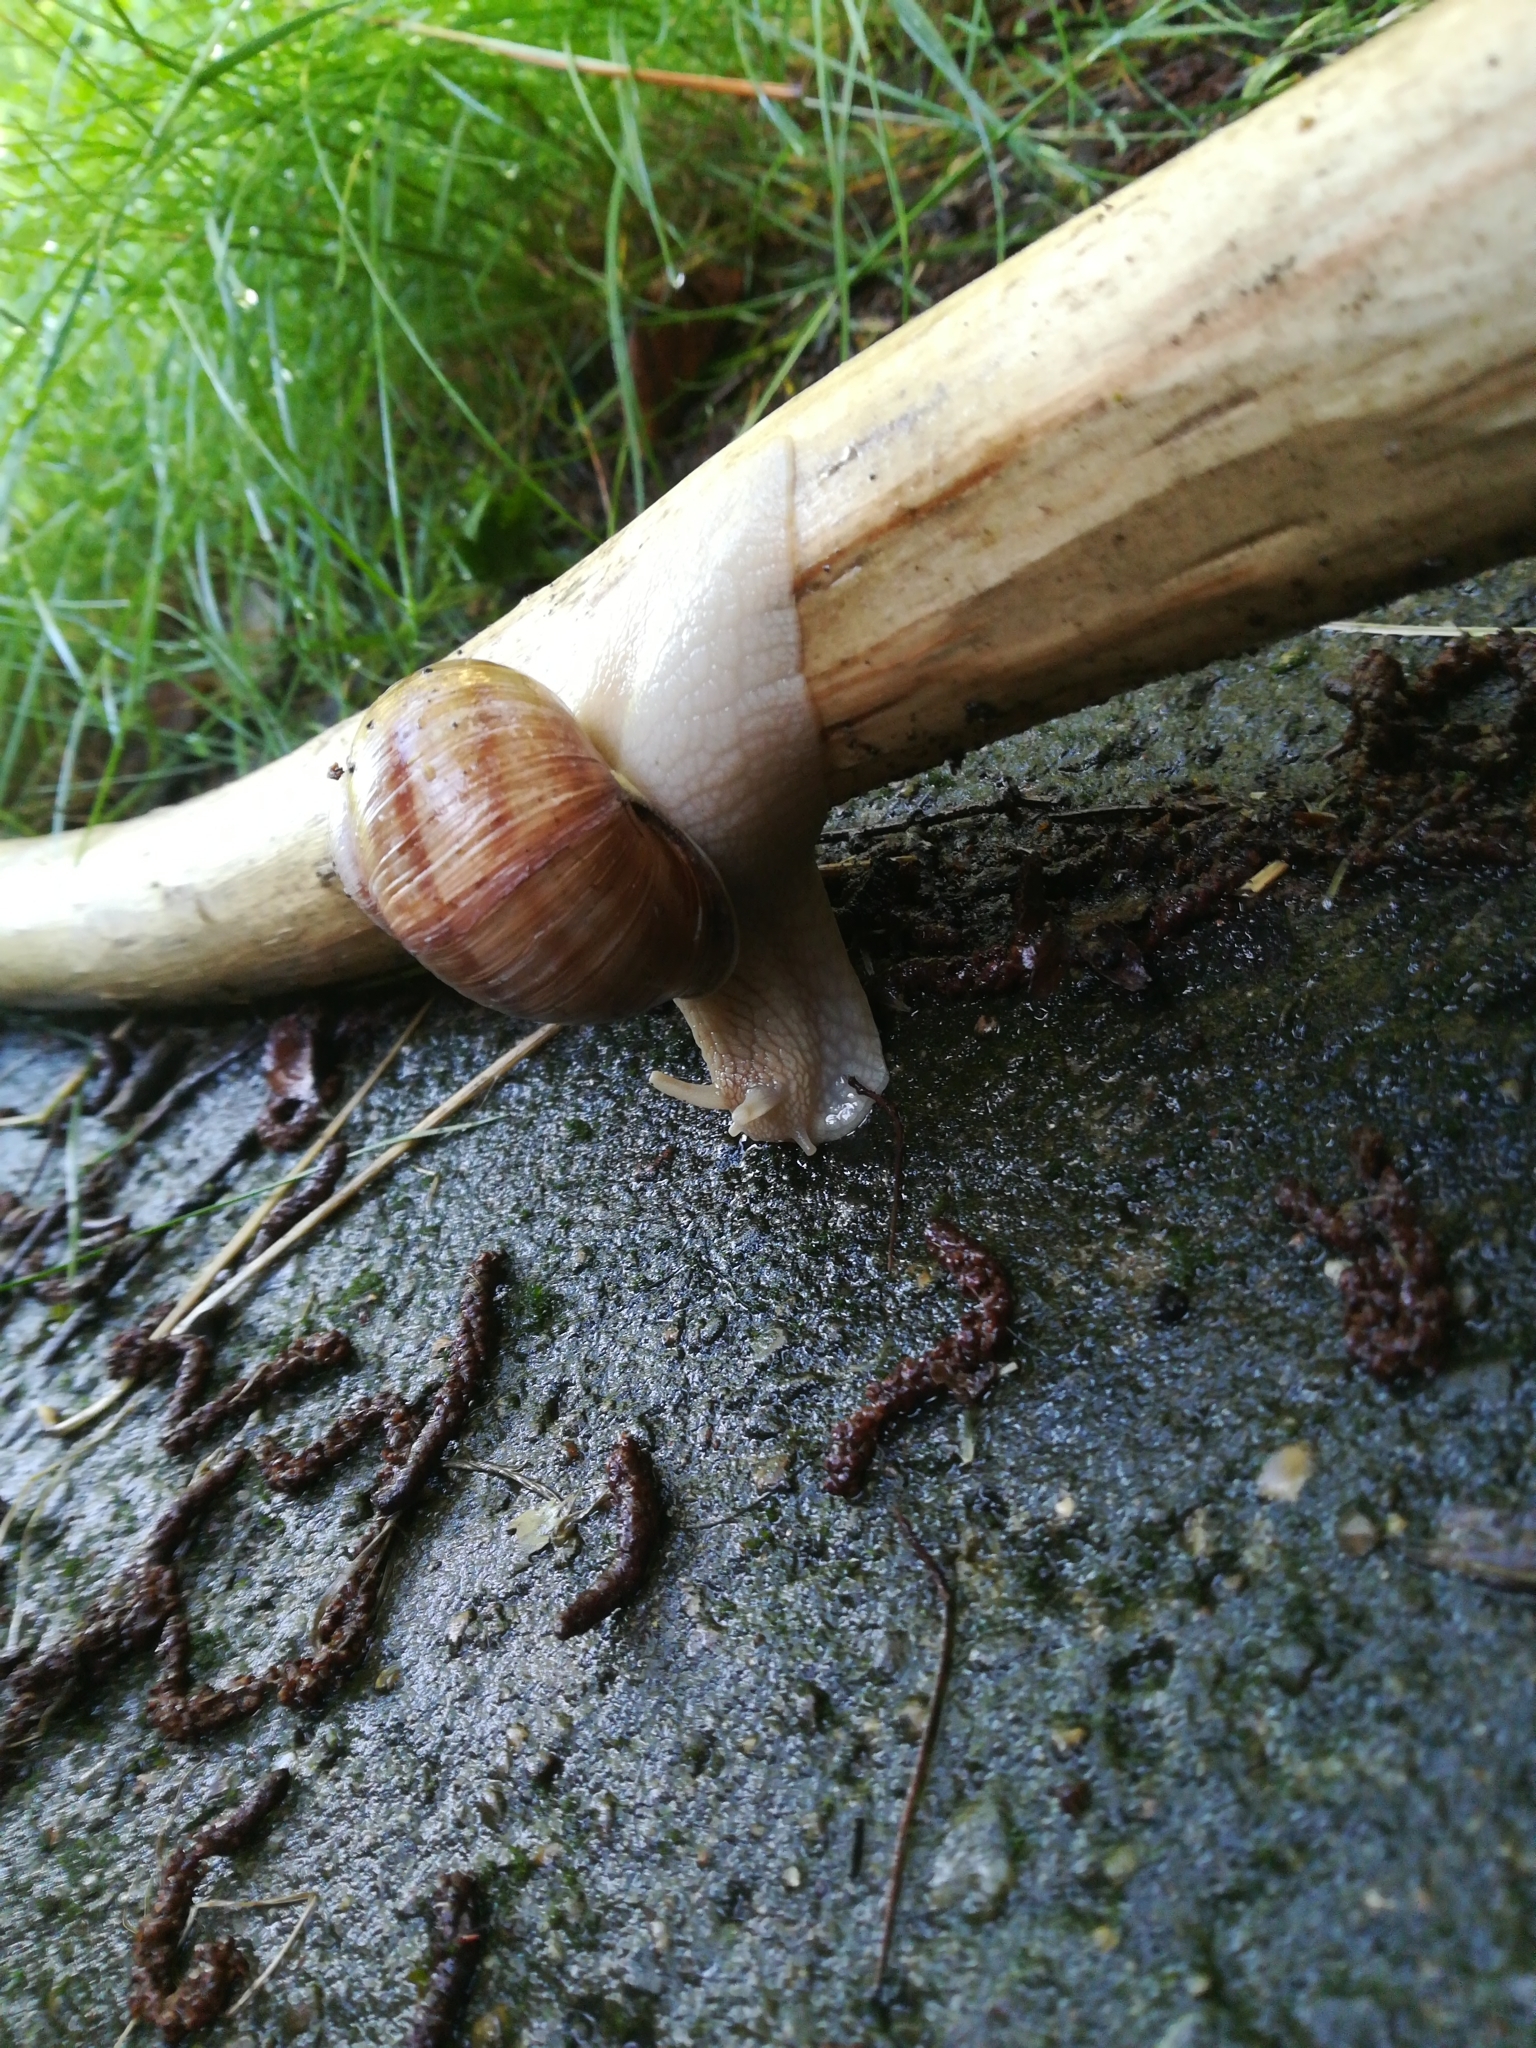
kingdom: Animalia
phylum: Mollusca
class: Gastropoda
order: Stylommatophora
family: Helicidae
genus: Helix
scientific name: Helix pomatia
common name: Roman snail
